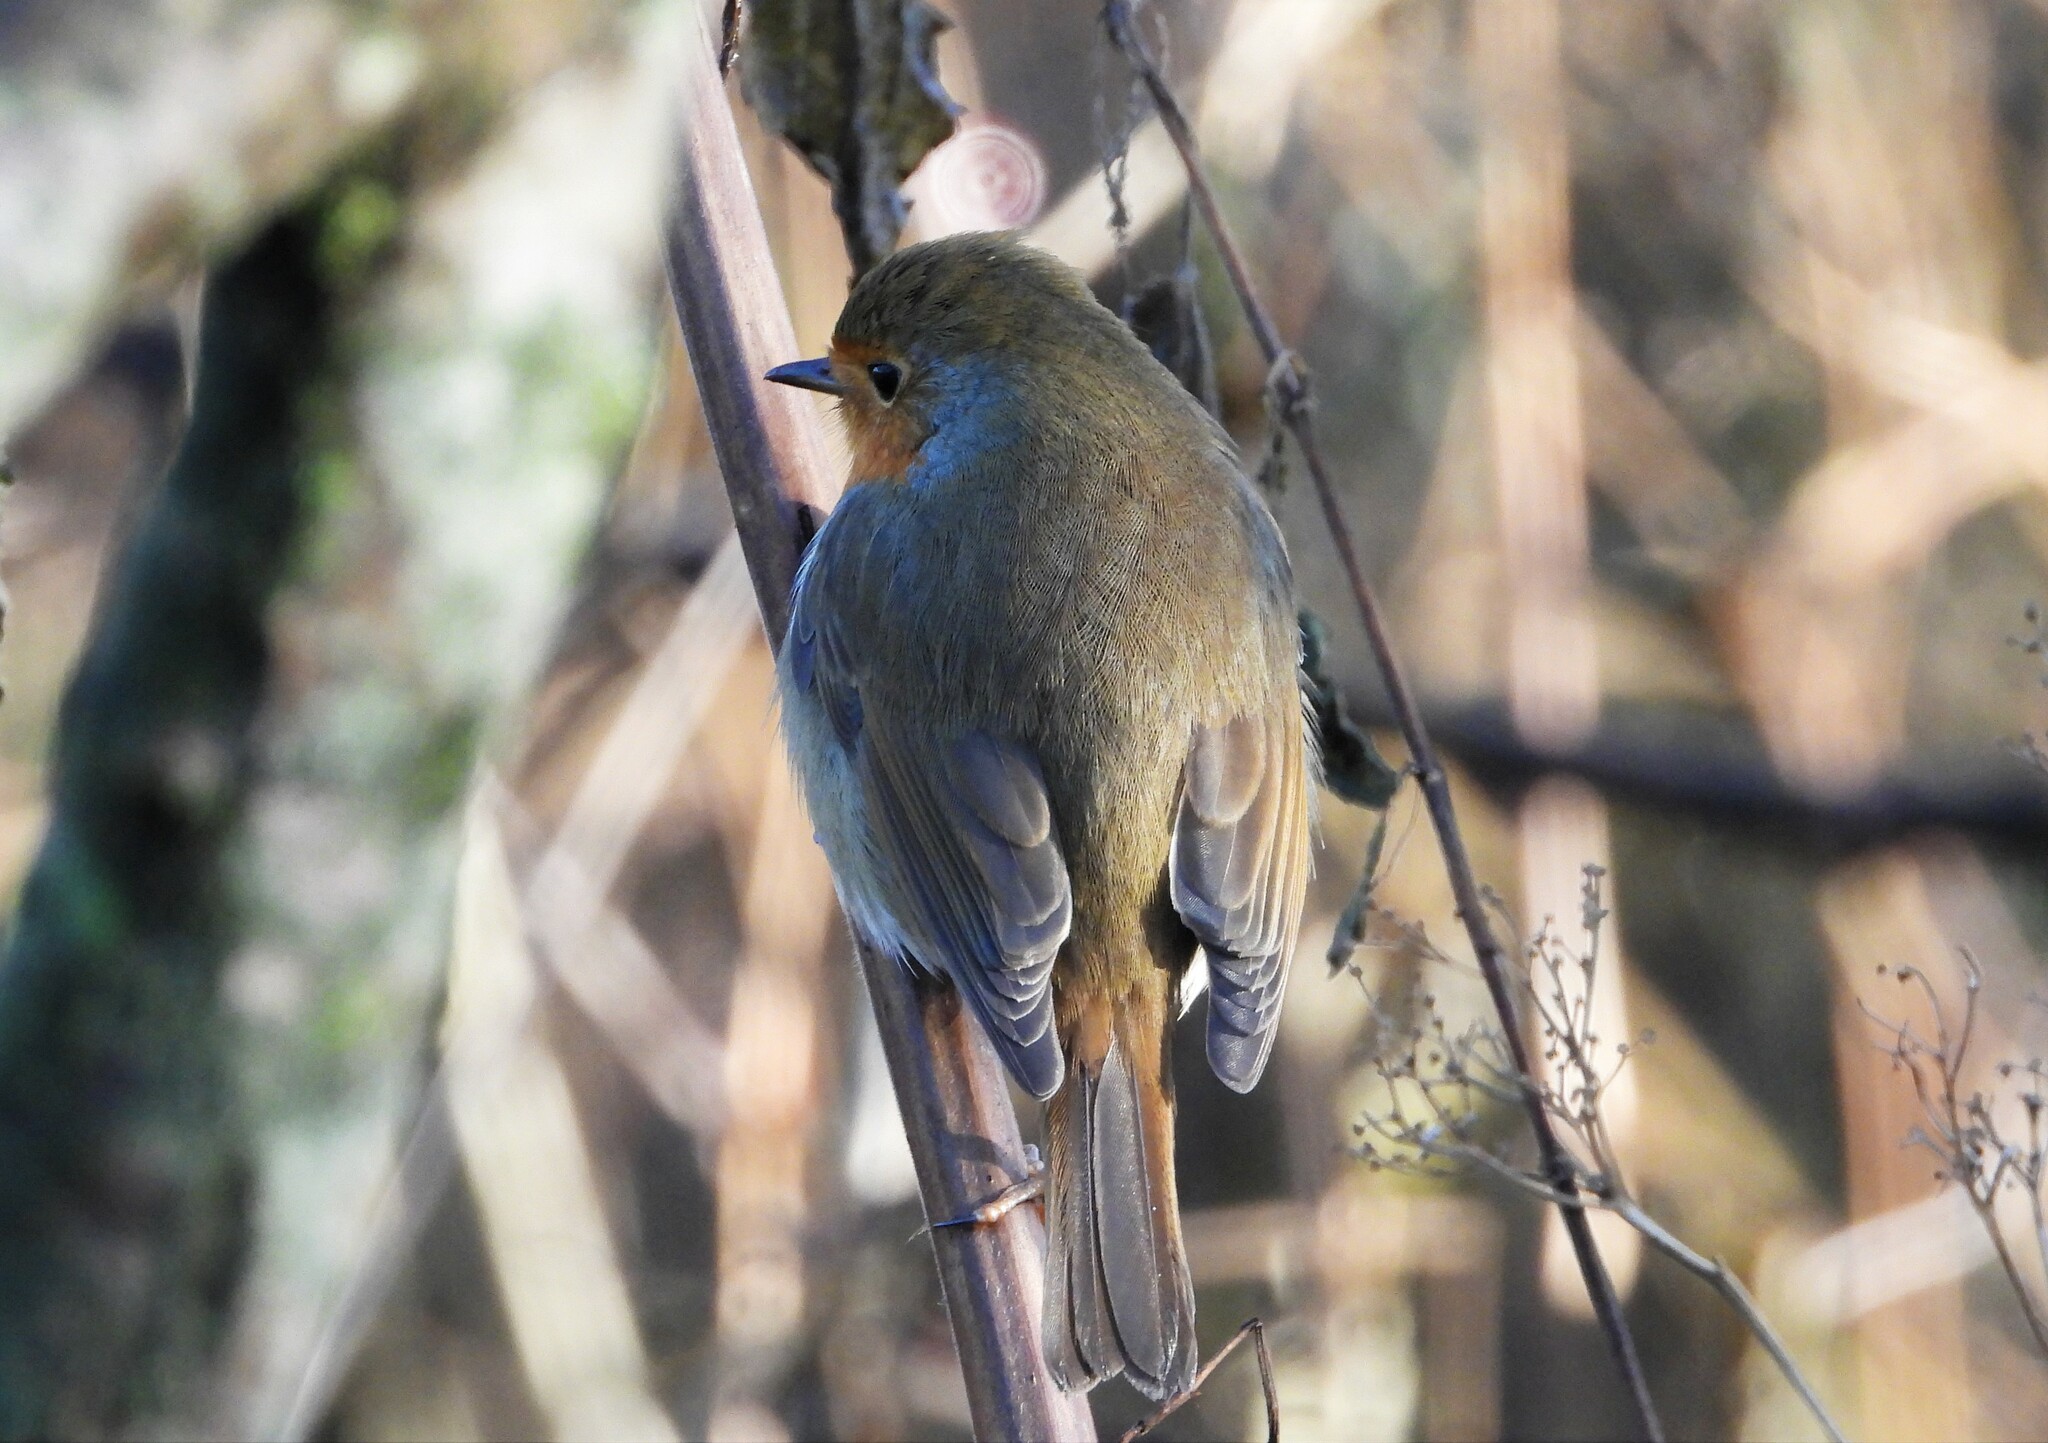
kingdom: Animalia
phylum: Chordata
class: Aves
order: Passeriformes
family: Muscicapidae
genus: Erithacus
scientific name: Erithacus rubecula
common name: European robin
